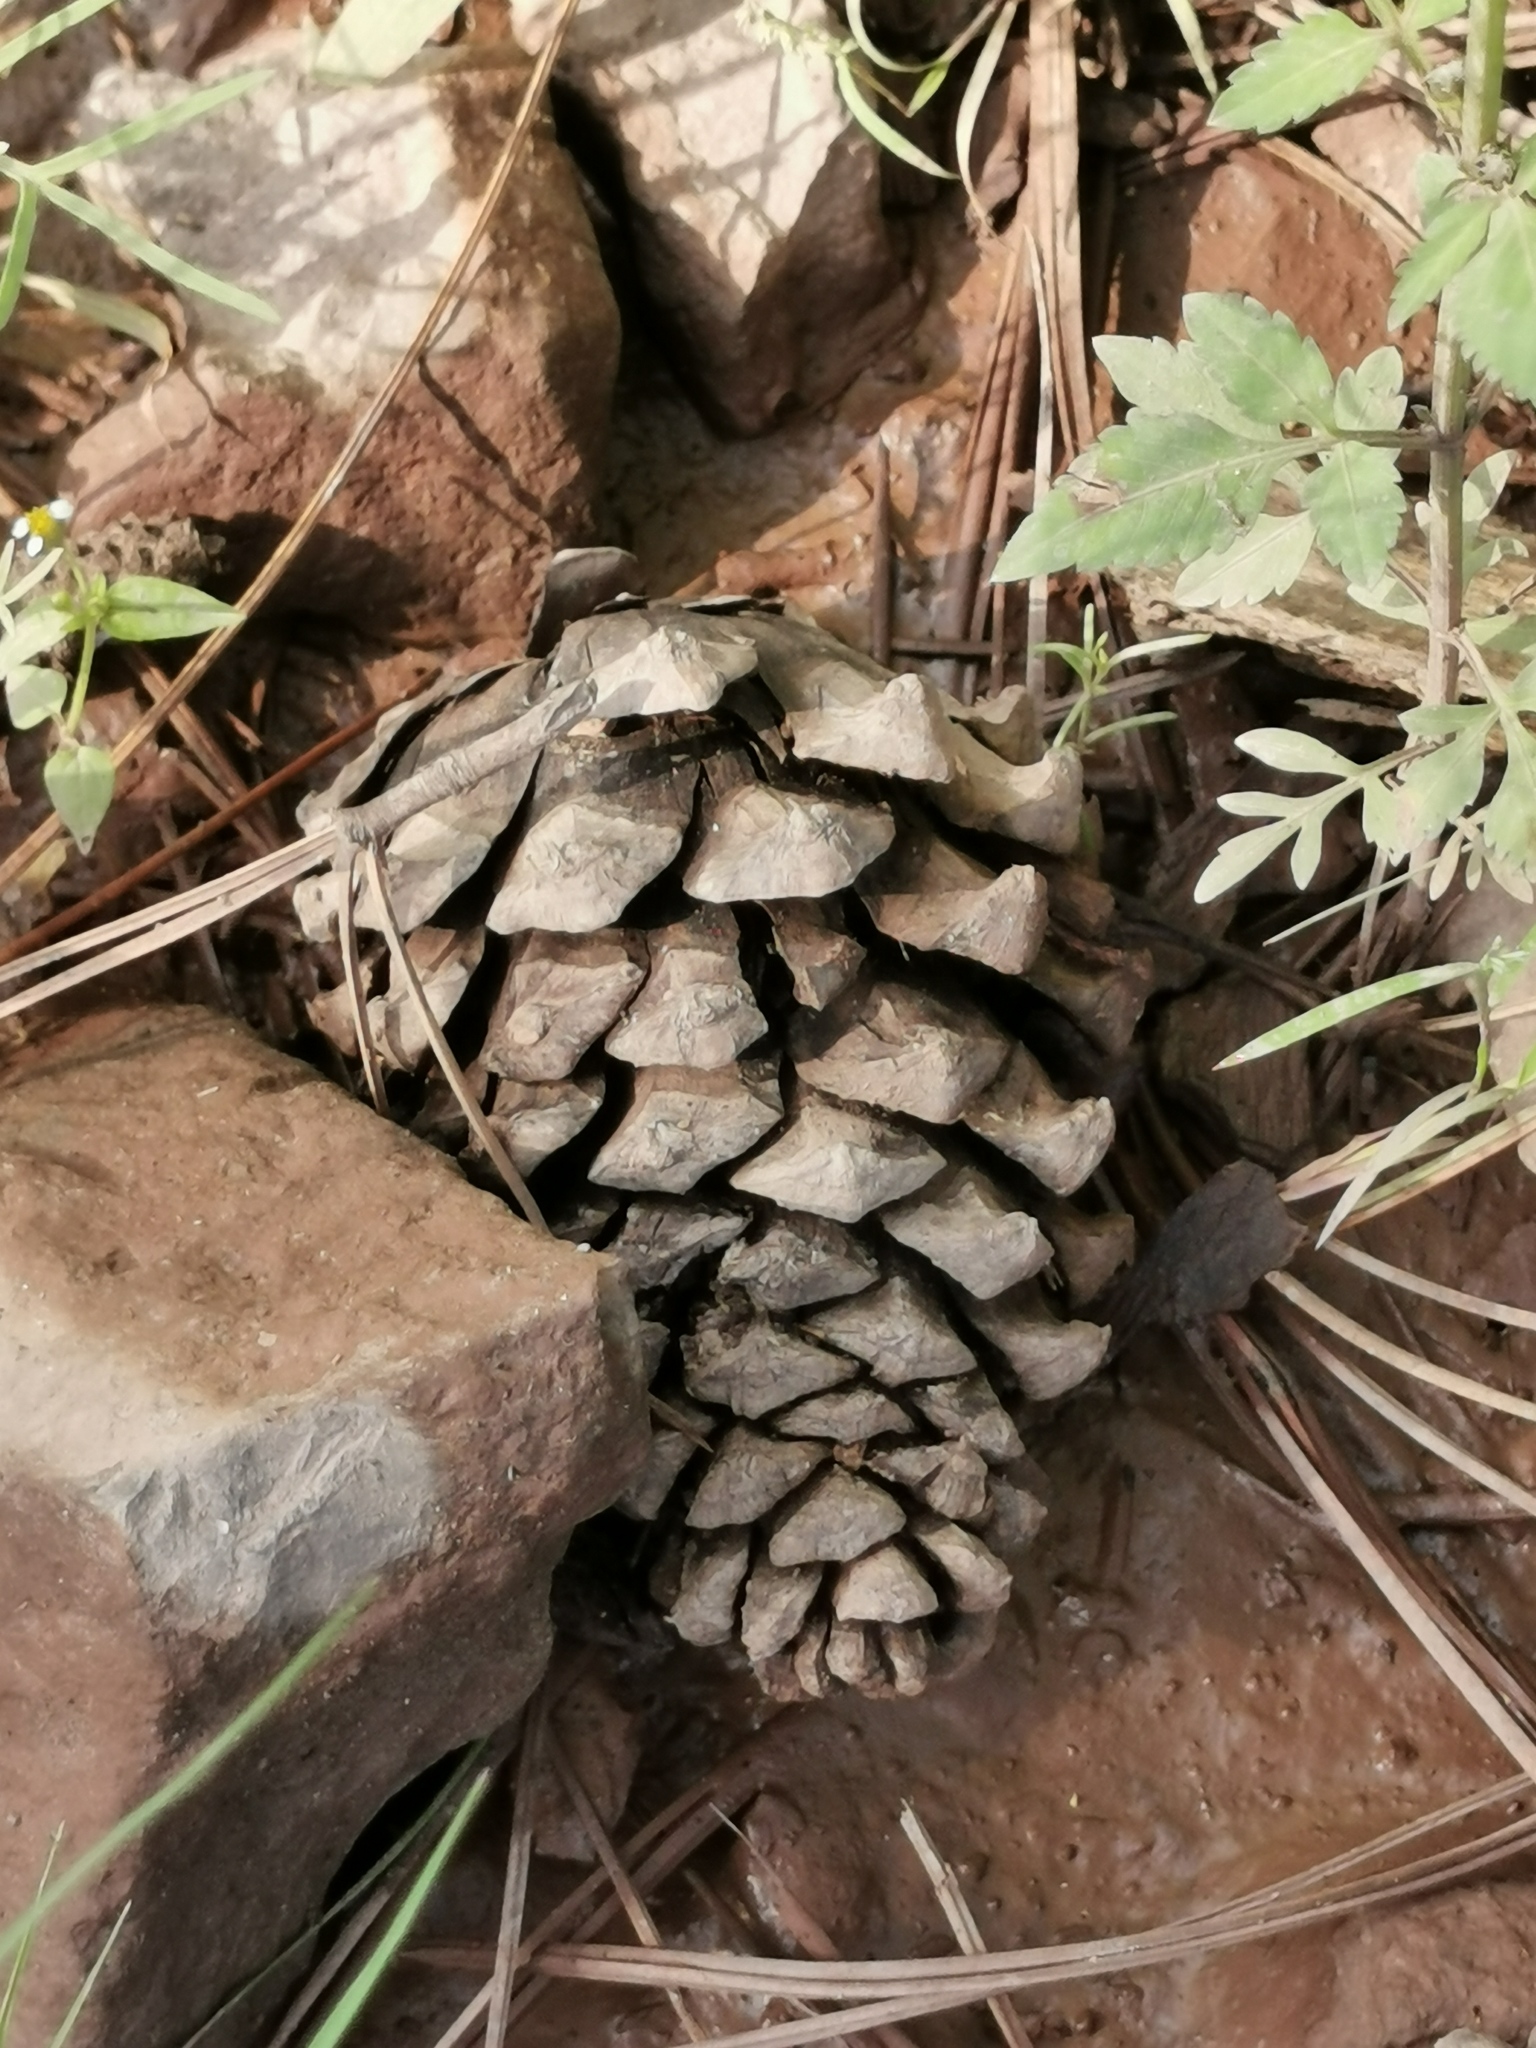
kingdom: Plantae
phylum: Tracheophyta
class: Pinopsida
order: Pinales
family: Pinaceae
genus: Pinus
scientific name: Pinus engelmannii
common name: Apache pine
